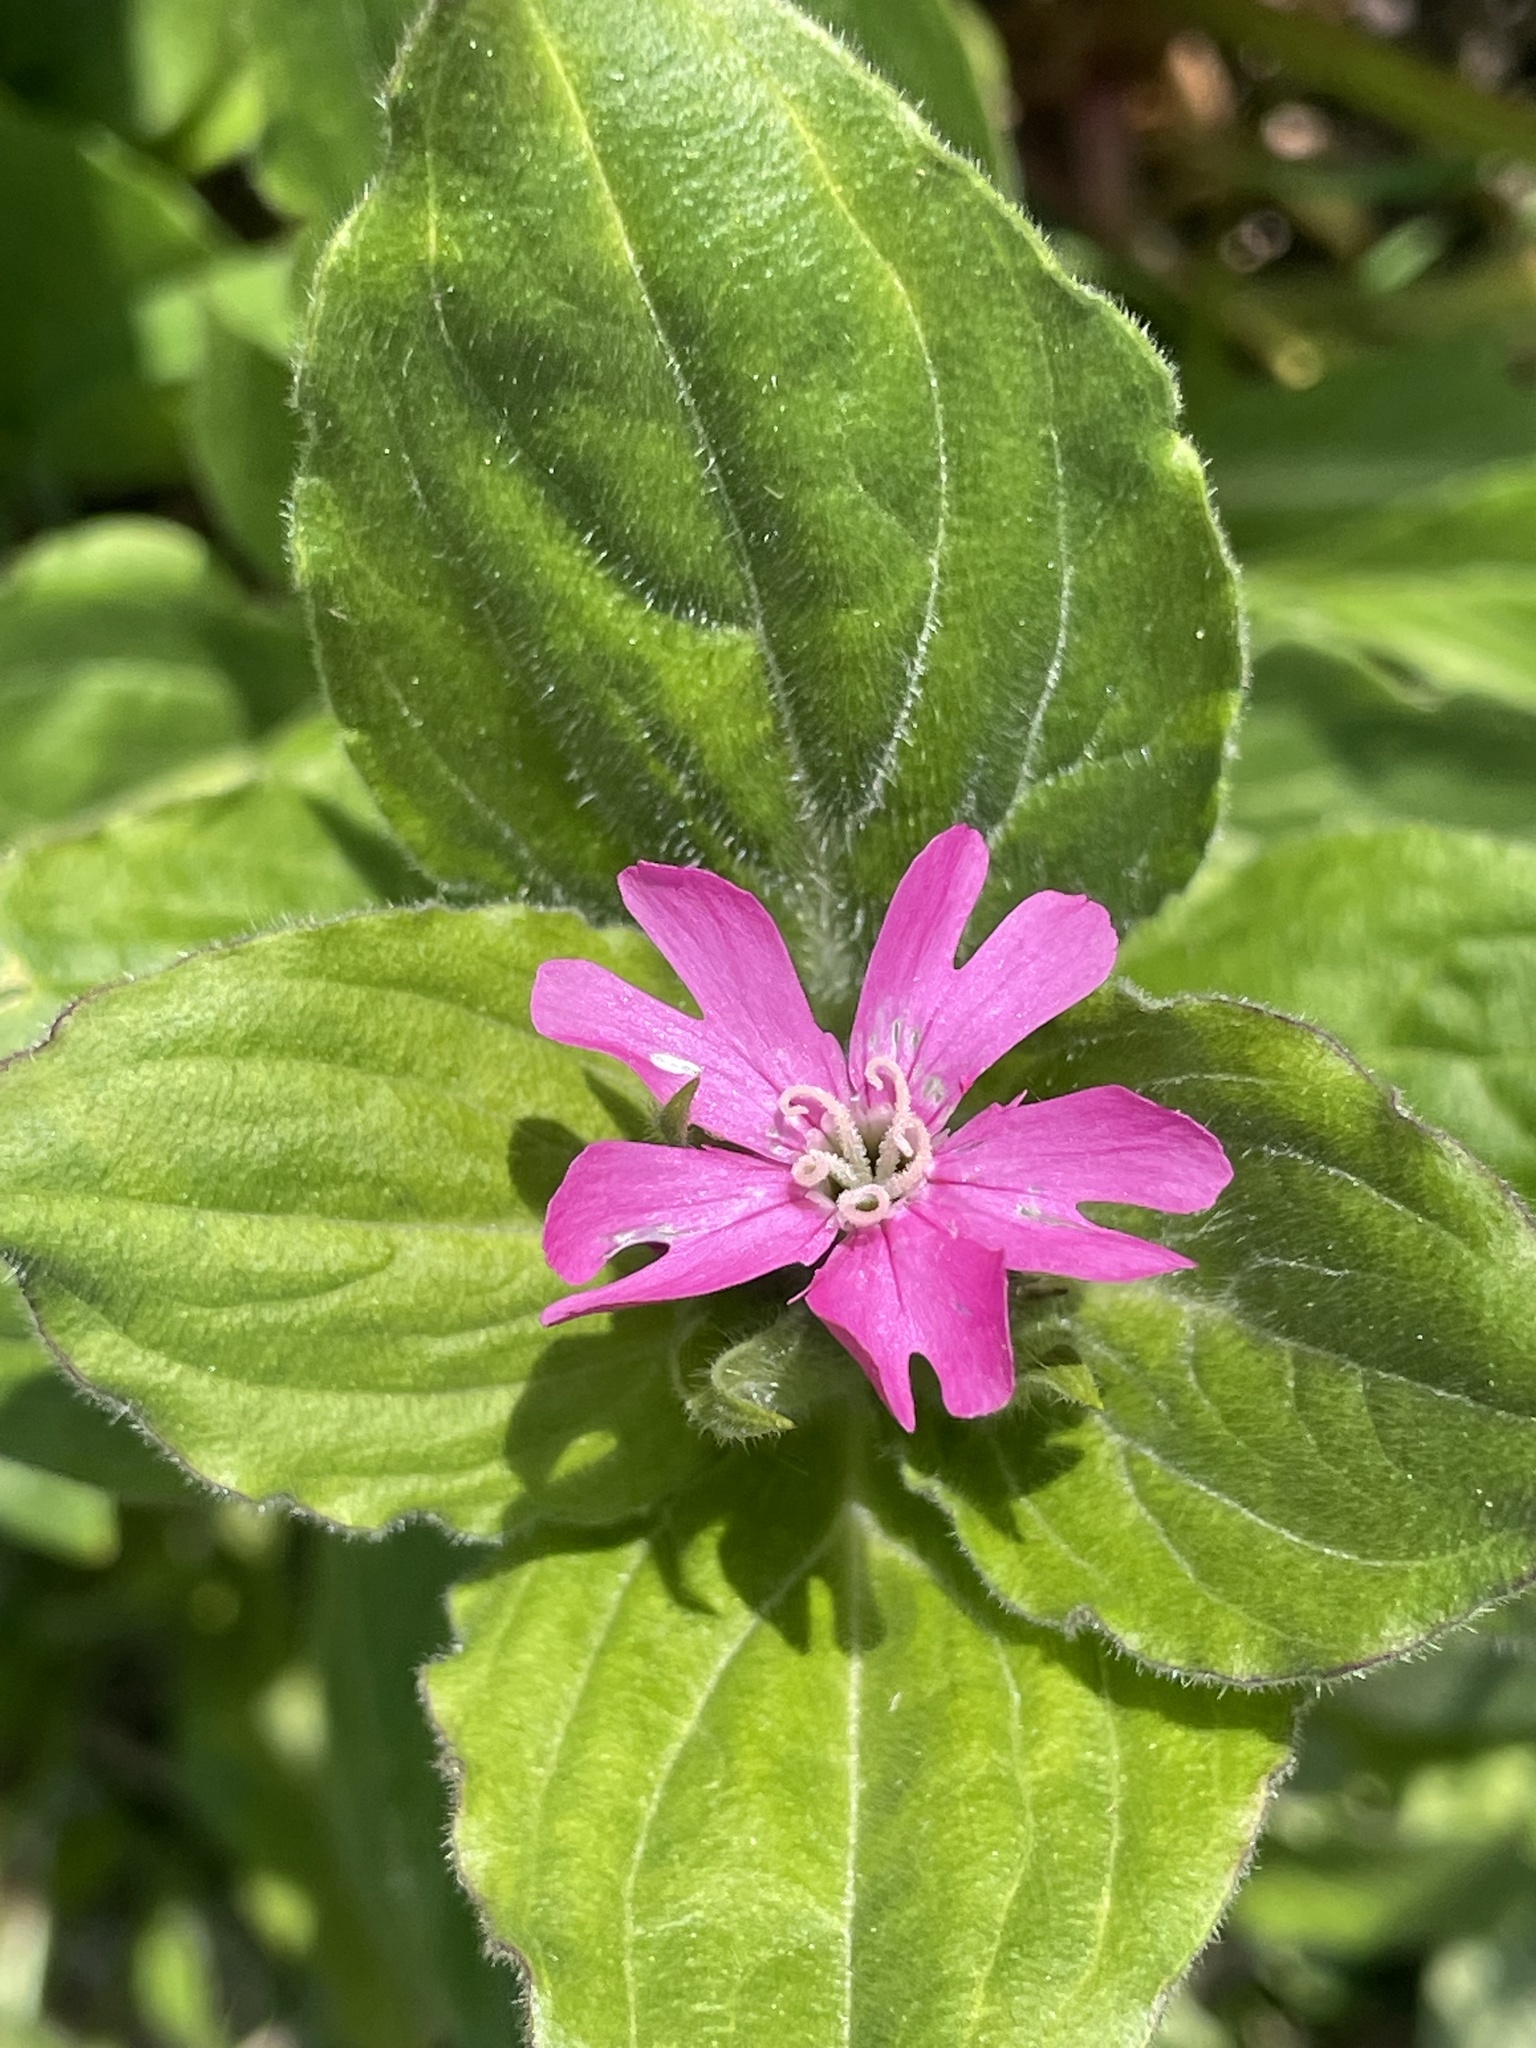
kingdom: Plantae
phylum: Tracheophyta
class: Magnoliopsida
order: Caryophyllales
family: Caryophyllaceae
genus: Silene
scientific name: Silene dioica
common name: Red campion
